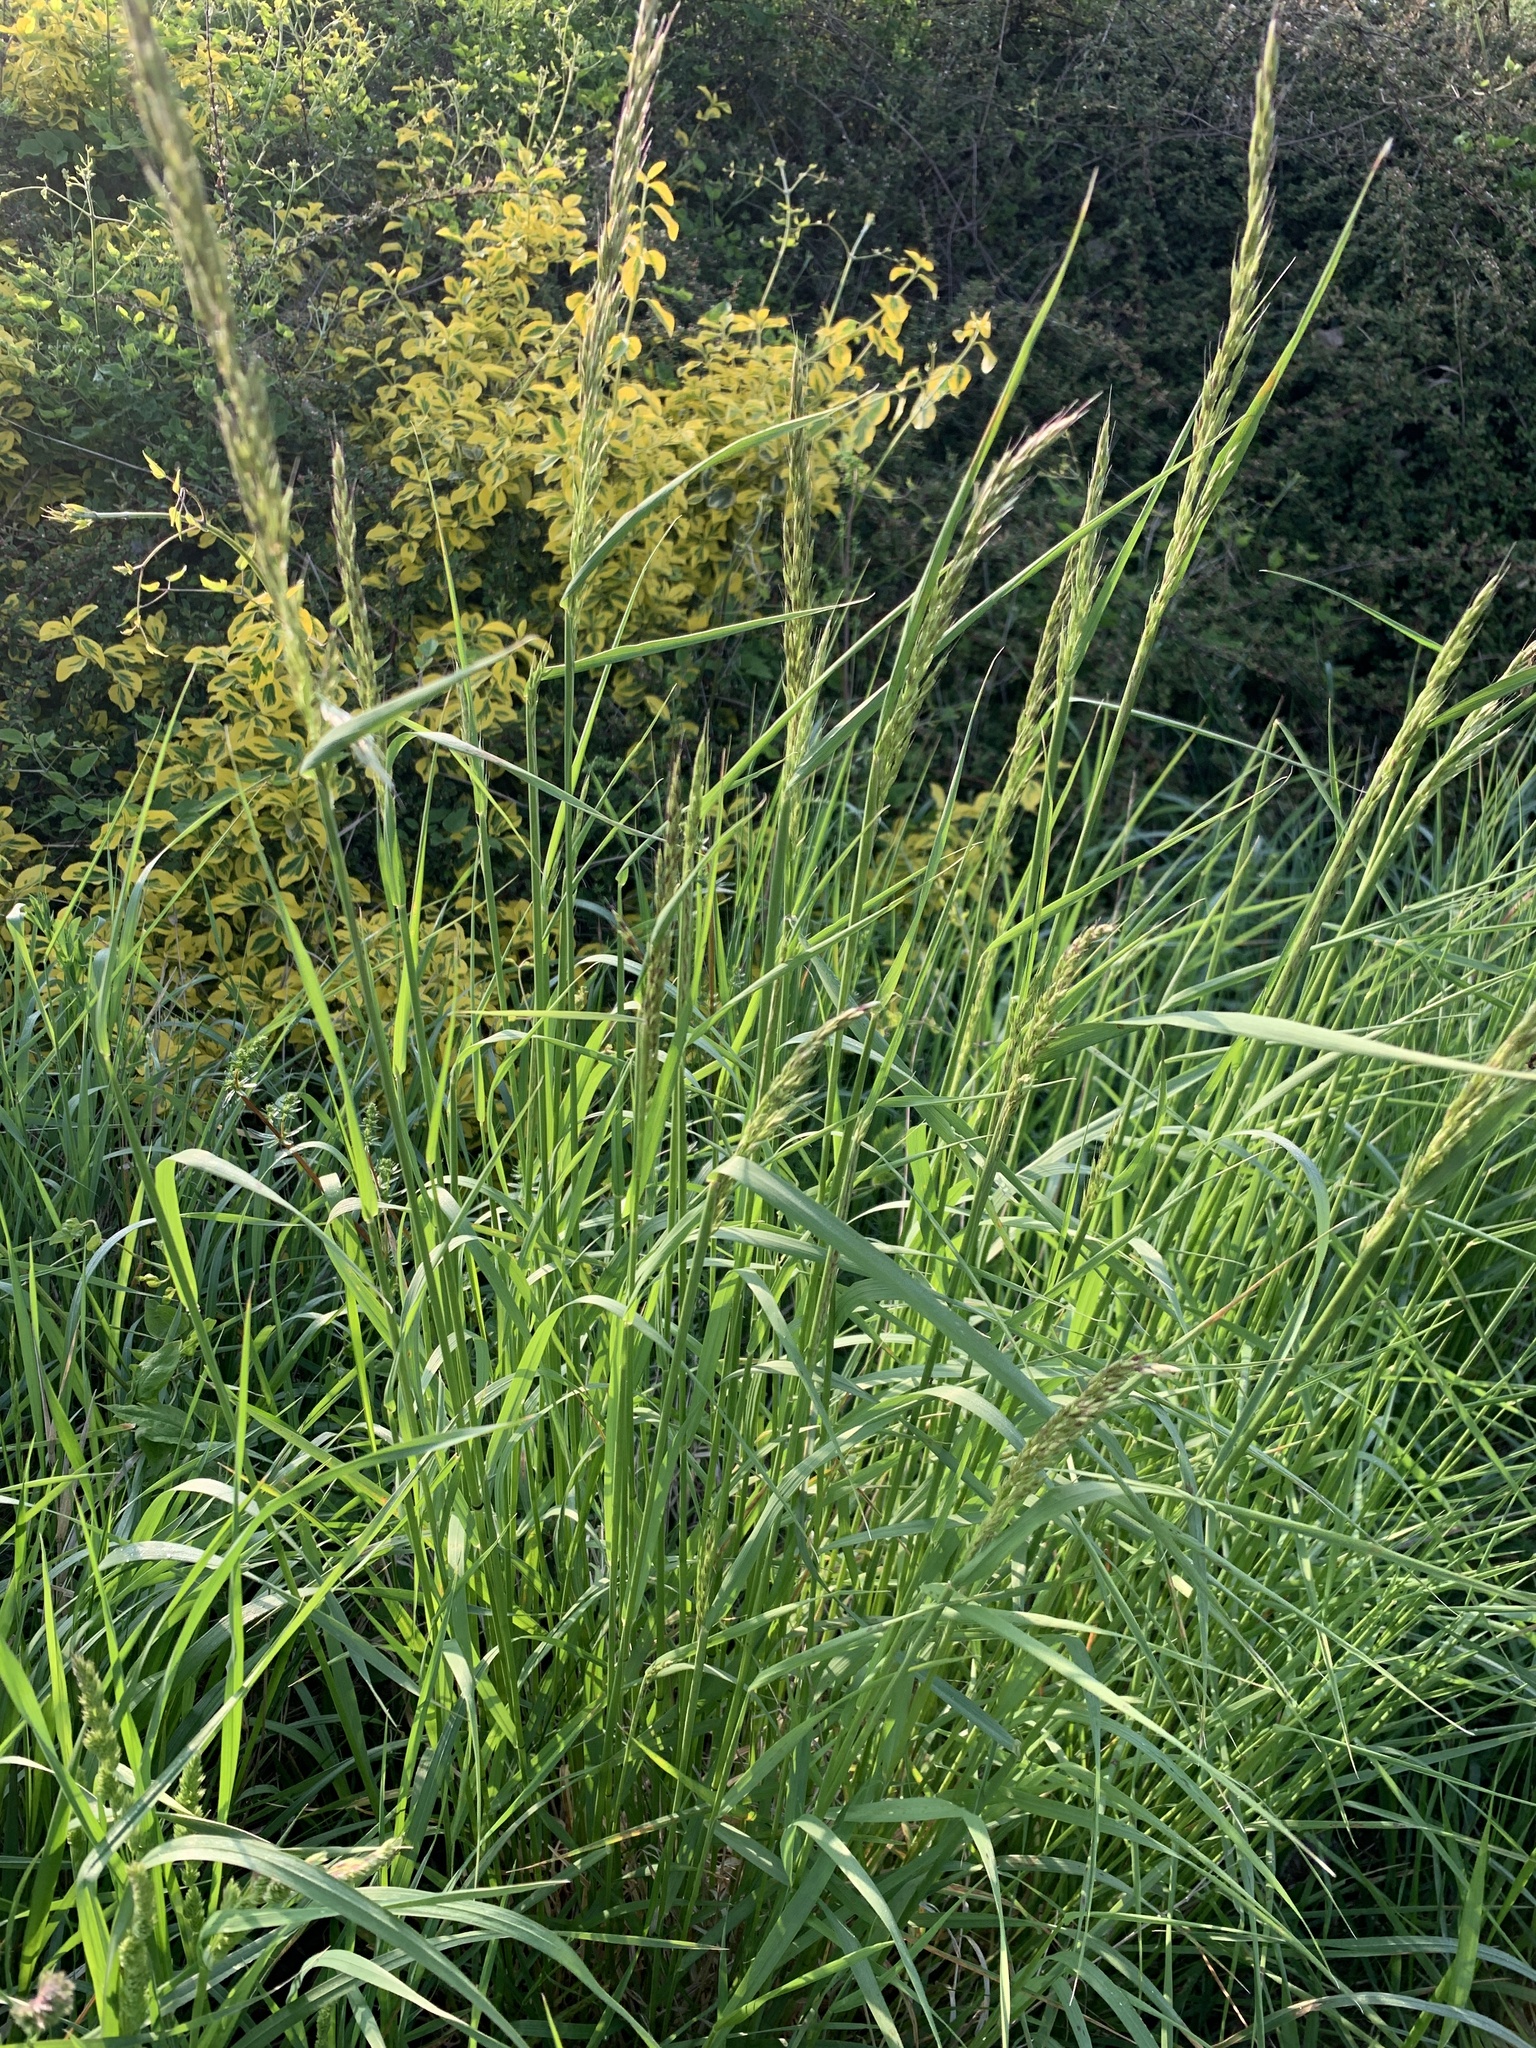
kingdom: Plantae
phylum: Tracheophyta
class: Liliopsida
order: Poales
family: Poaceae
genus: Arrhenatherum
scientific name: Arrhenatherum elatius
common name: Tall oatgrass
